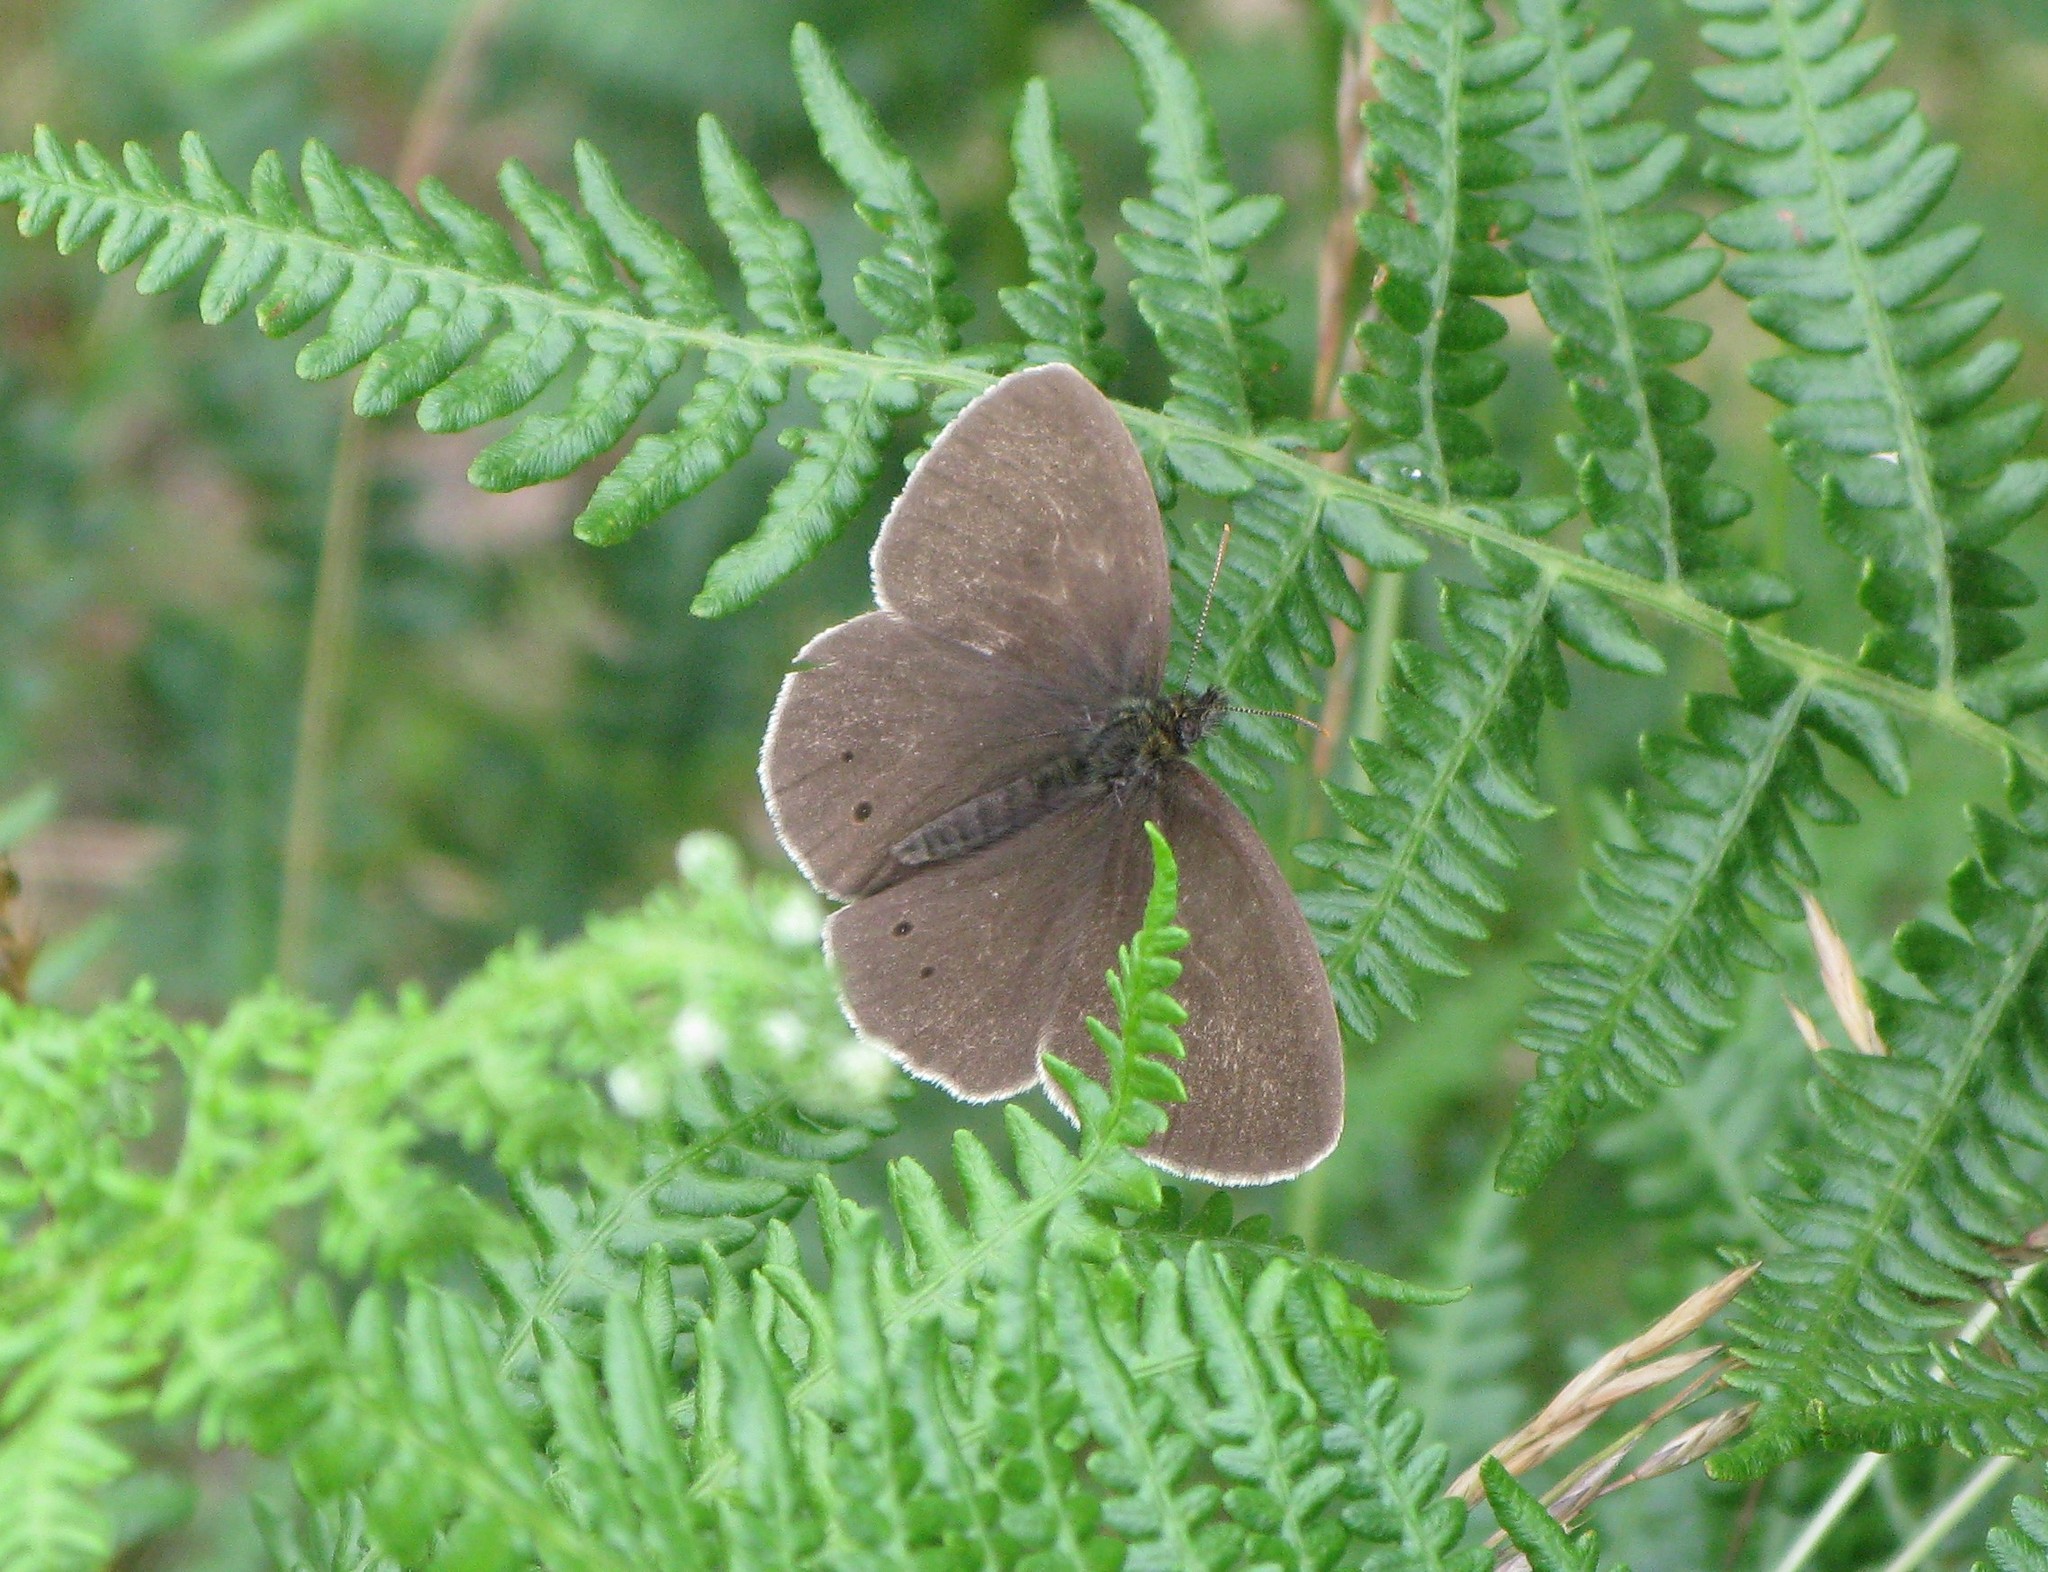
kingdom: Animalia
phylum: Arthropoda
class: Insecta
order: Lepidoptera
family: Nymphalidae
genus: Aphantopus
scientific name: Aphantopus hyperantus
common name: Ringlet
